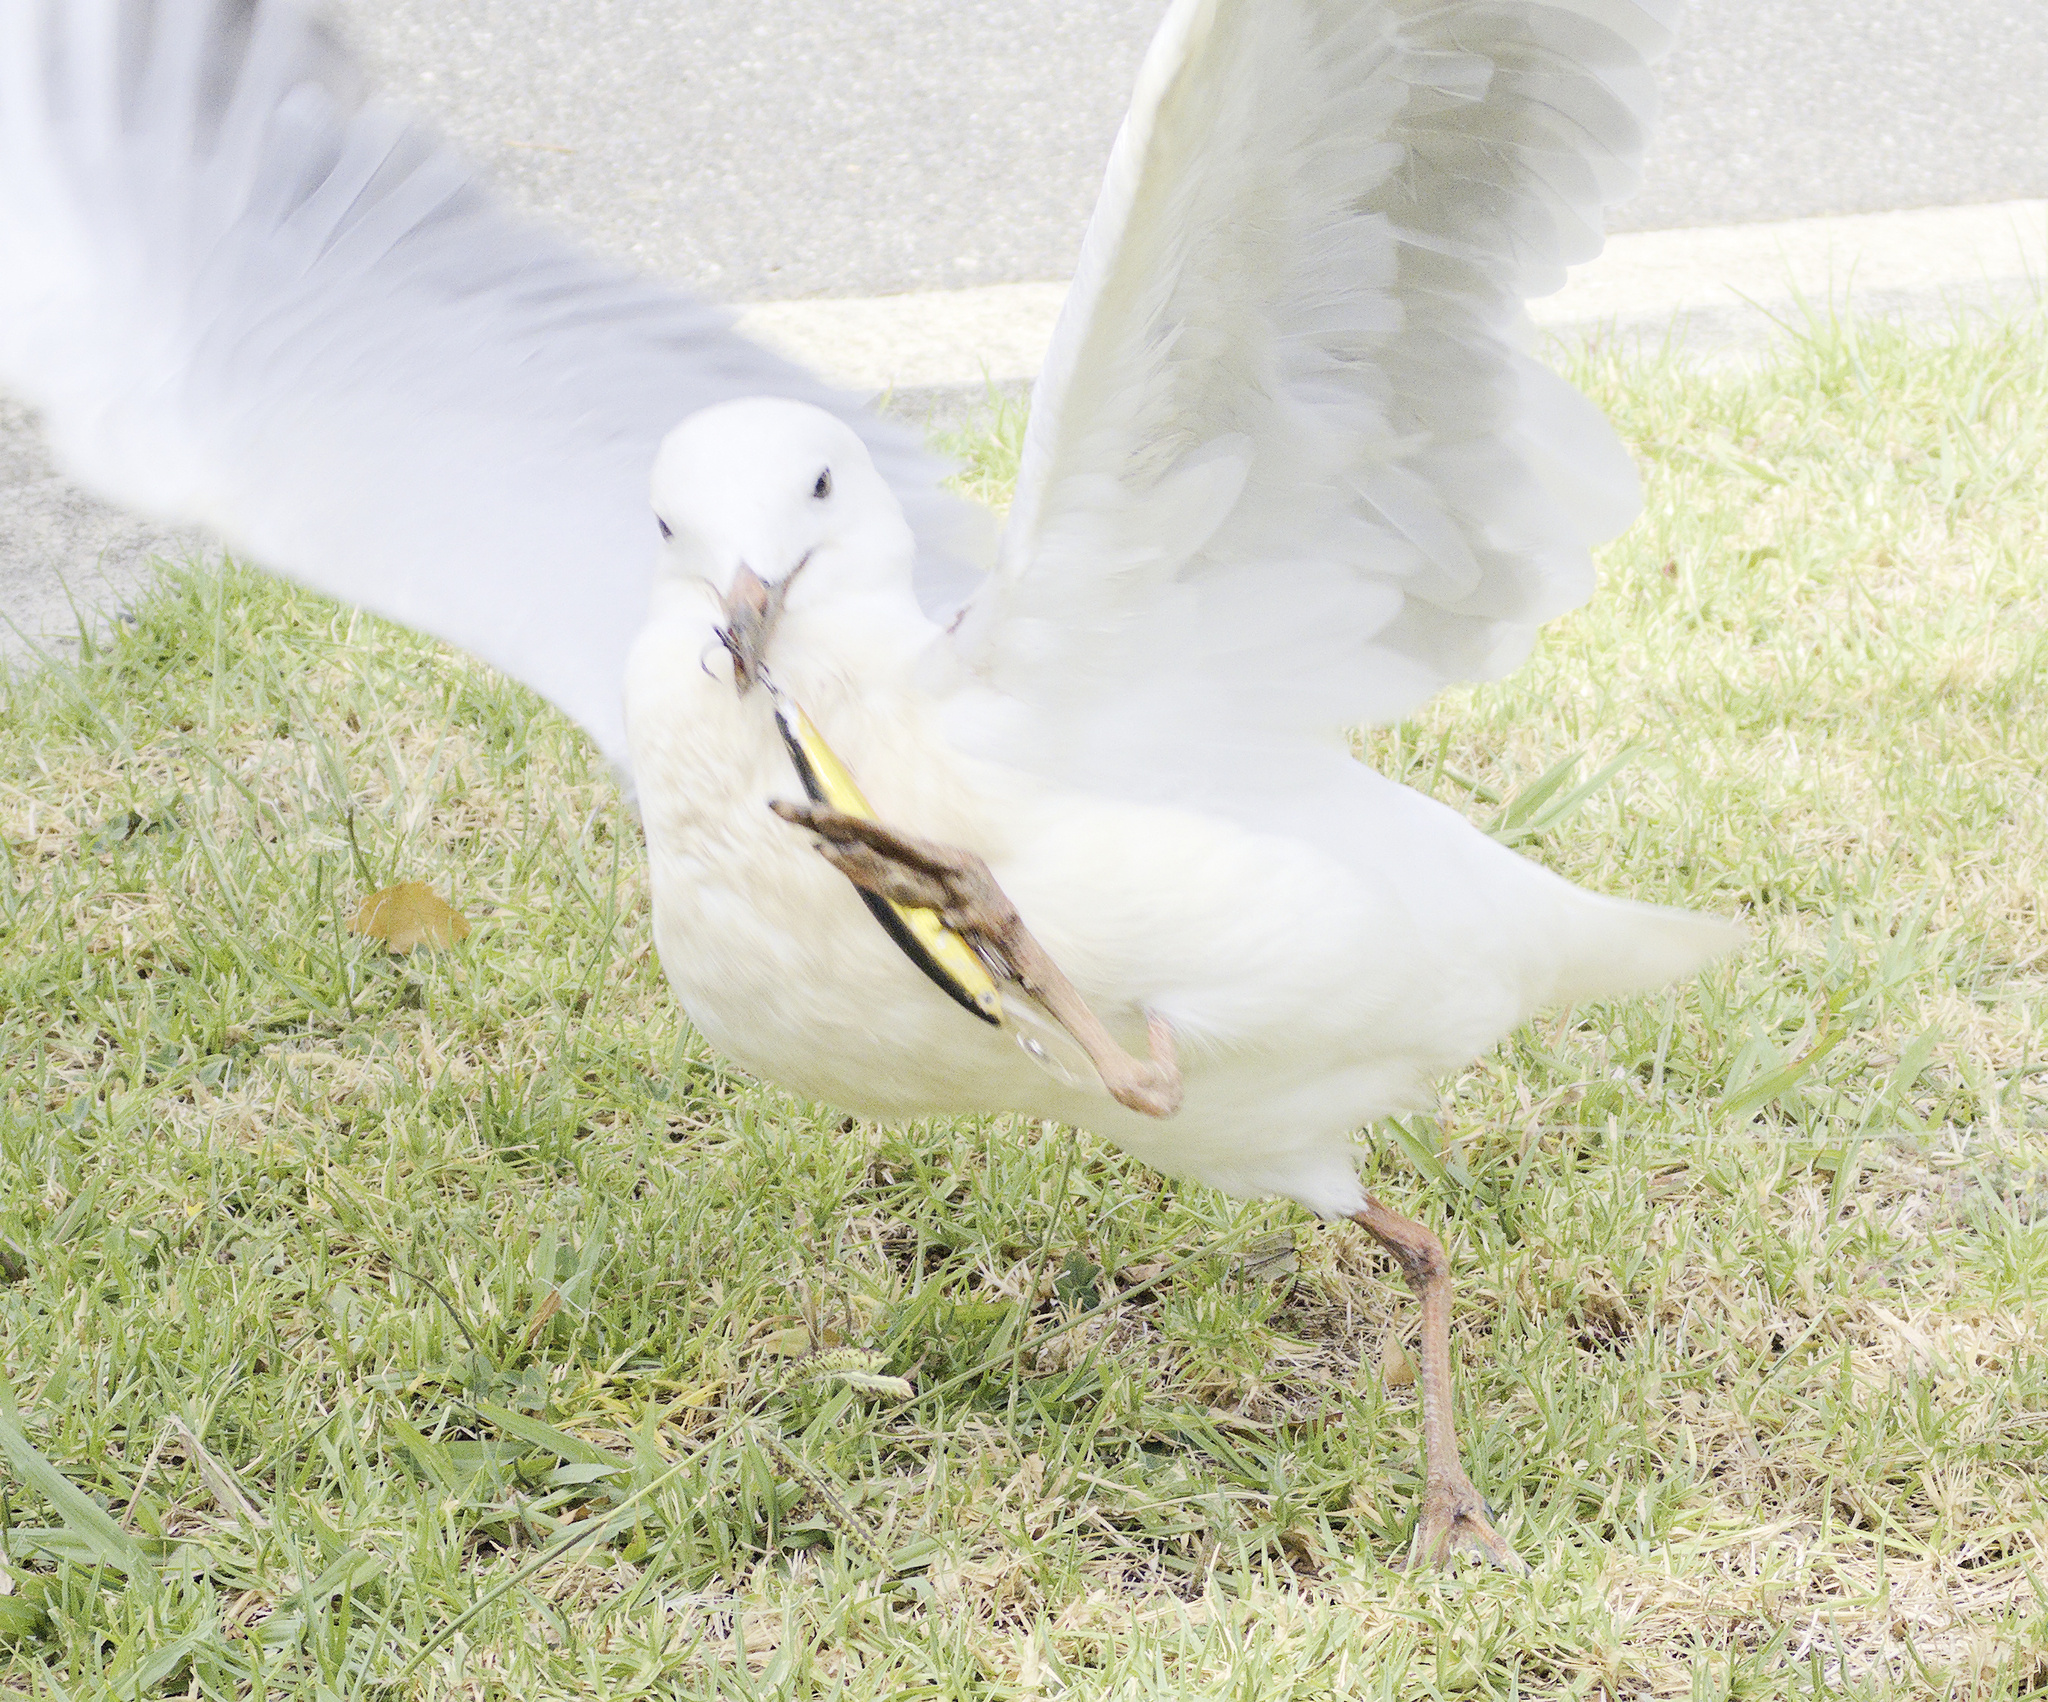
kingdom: Animalia
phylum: Chordata
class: Aves
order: Charadriiformes
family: Laridae
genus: Chroicocephalus
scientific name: Chroicocephalus novaehollandiae
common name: Silver gull
